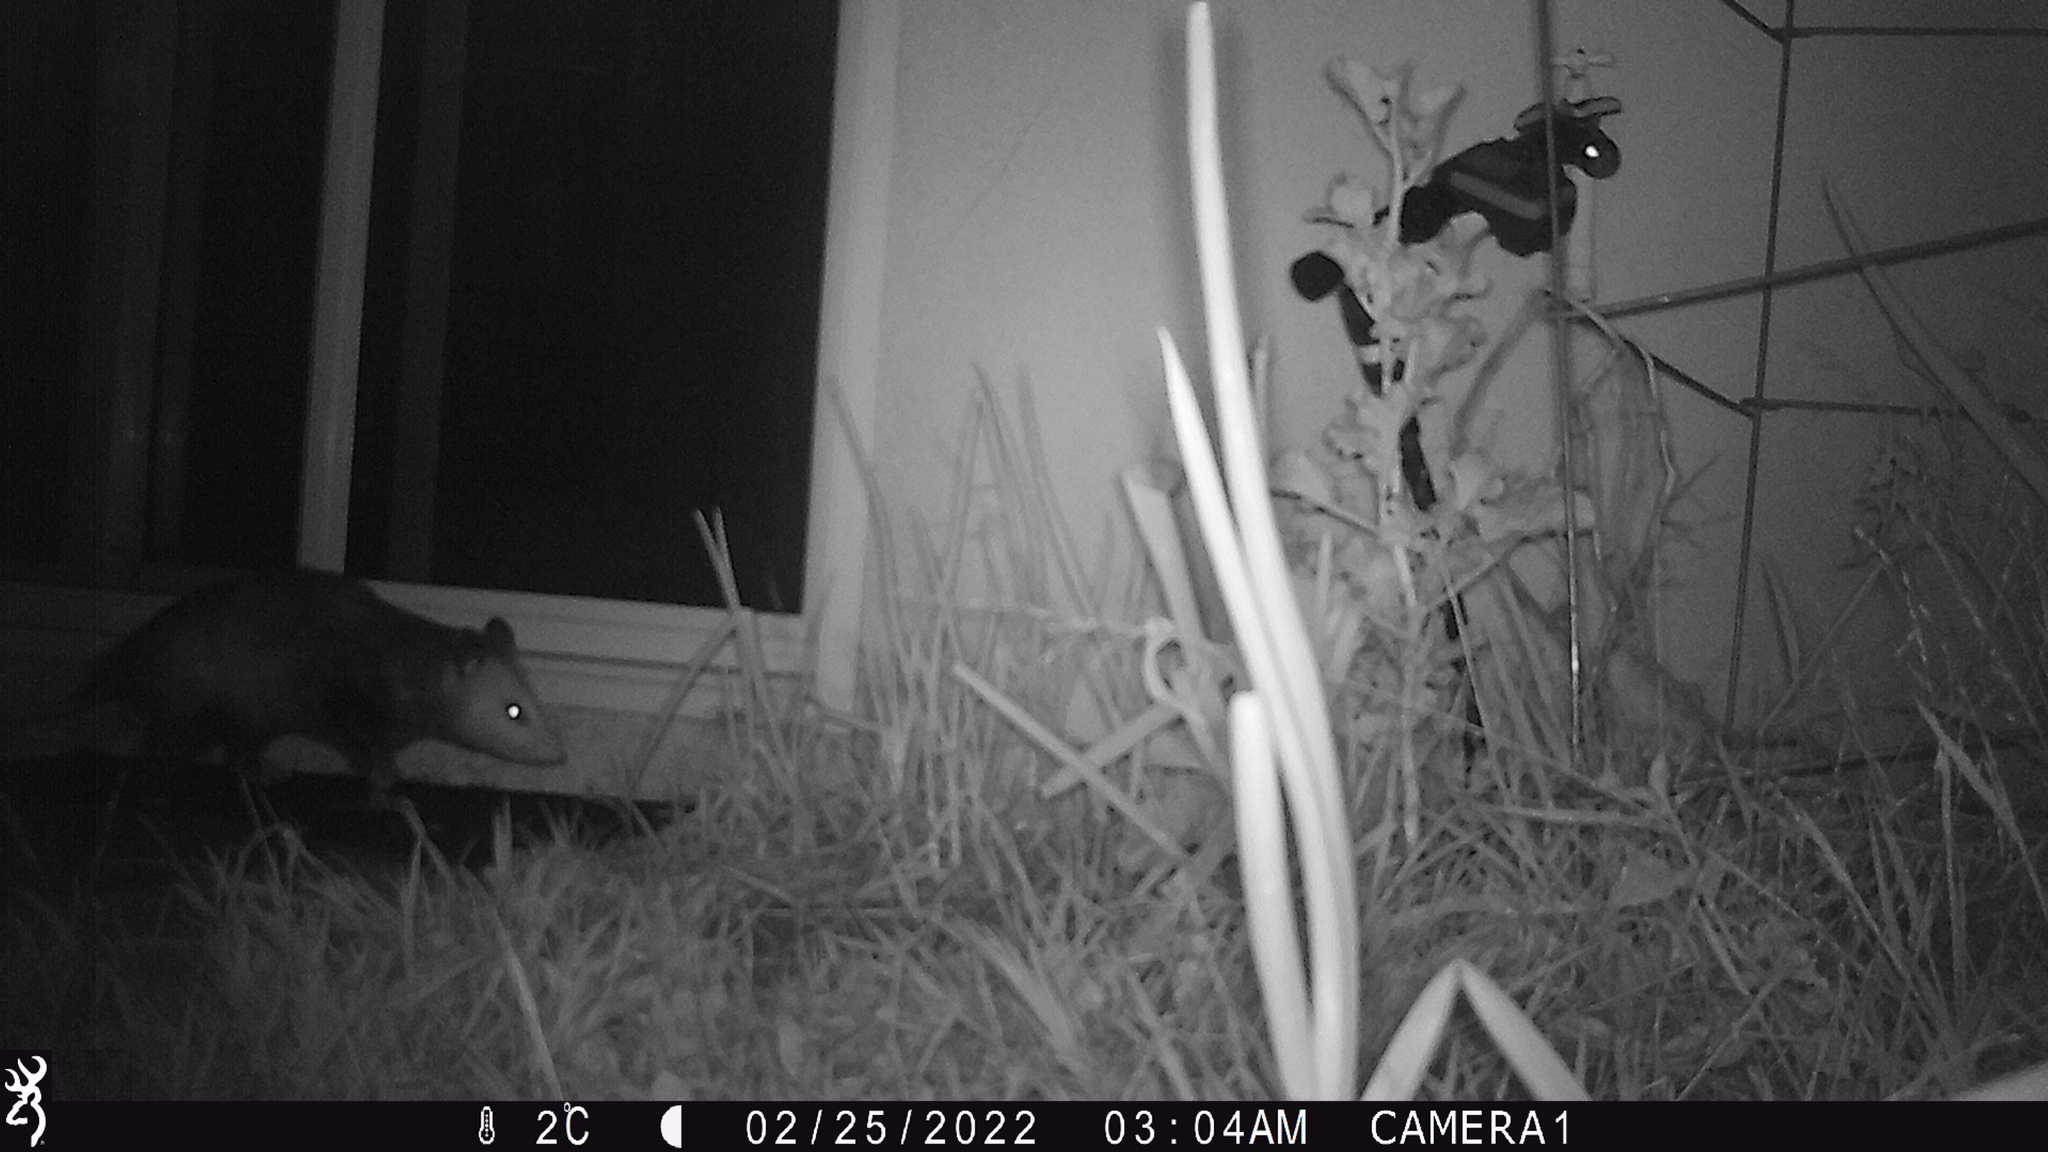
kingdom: Animalia
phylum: Chordata
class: Mammalia
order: Didelphimorphia
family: Didelphidae
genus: Didelphis
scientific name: Didelphis virginiana
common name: Virginia opossum
